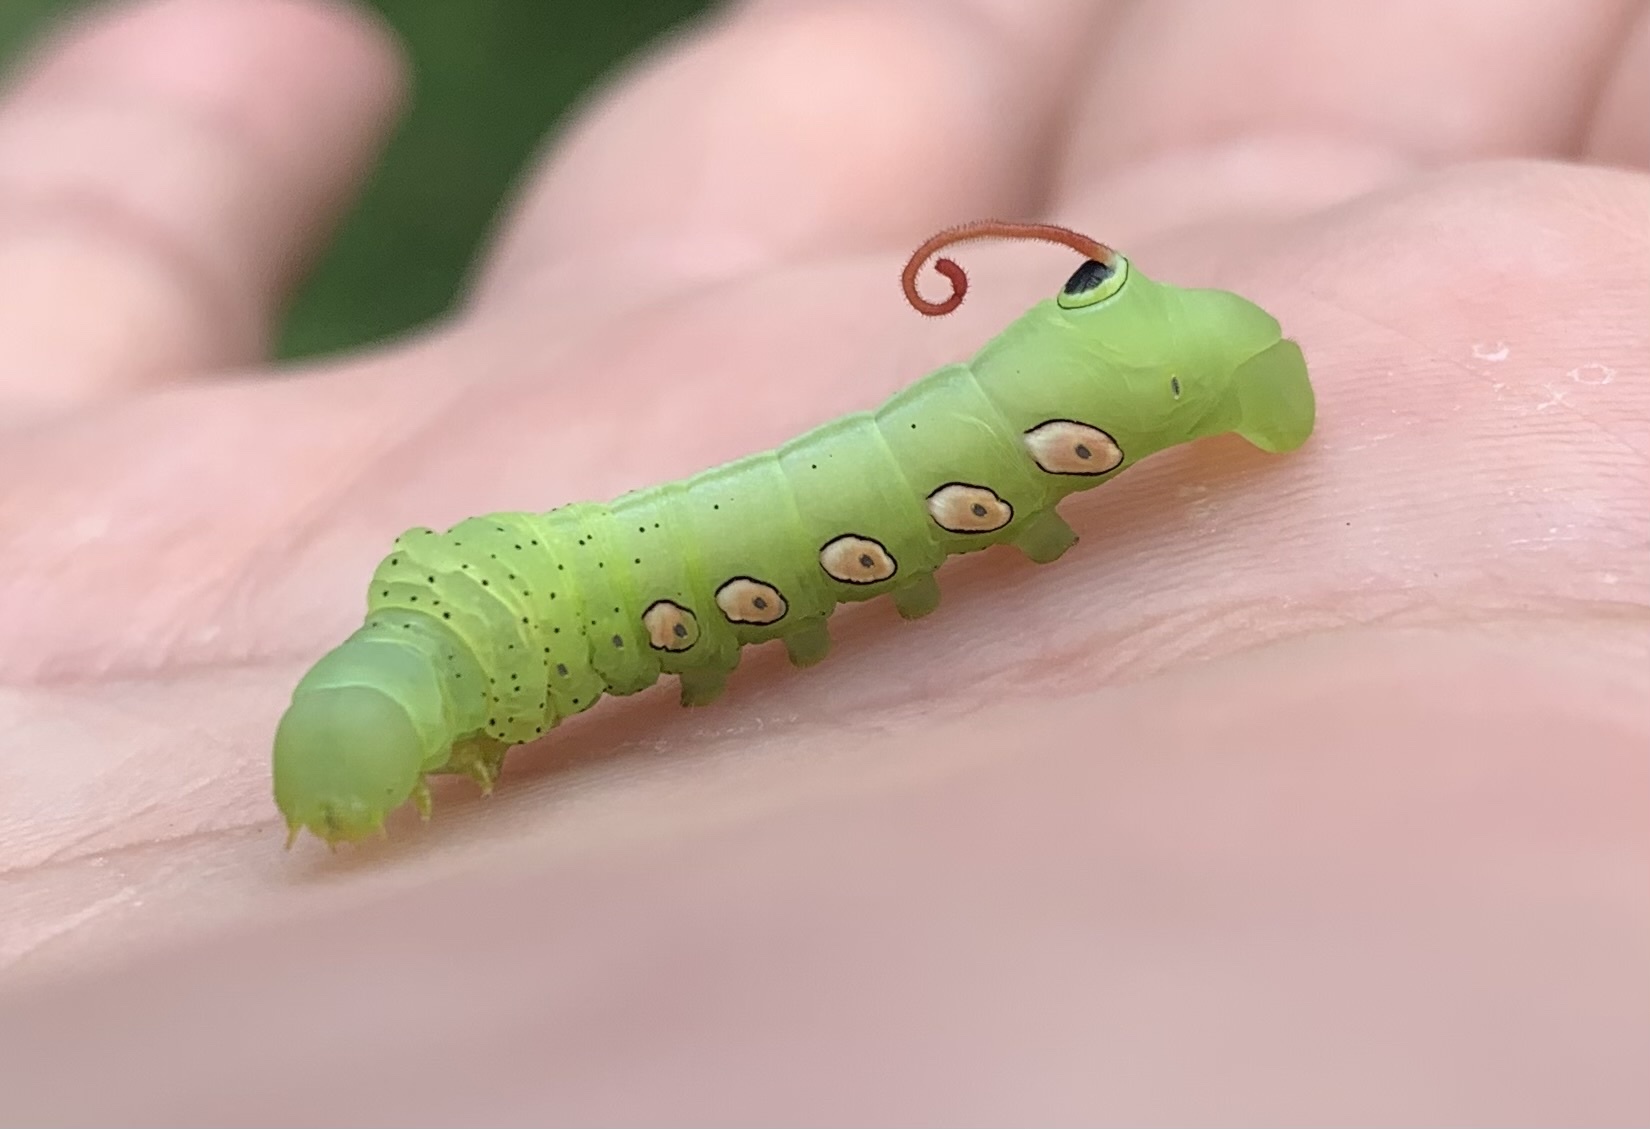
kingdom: Animalia
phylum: Arthropoda
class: Insecta
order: Lepidoptera
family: Sphingidae
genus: Eumorpha
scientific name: Eumorpha pandorus
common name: Pandora sphinx
